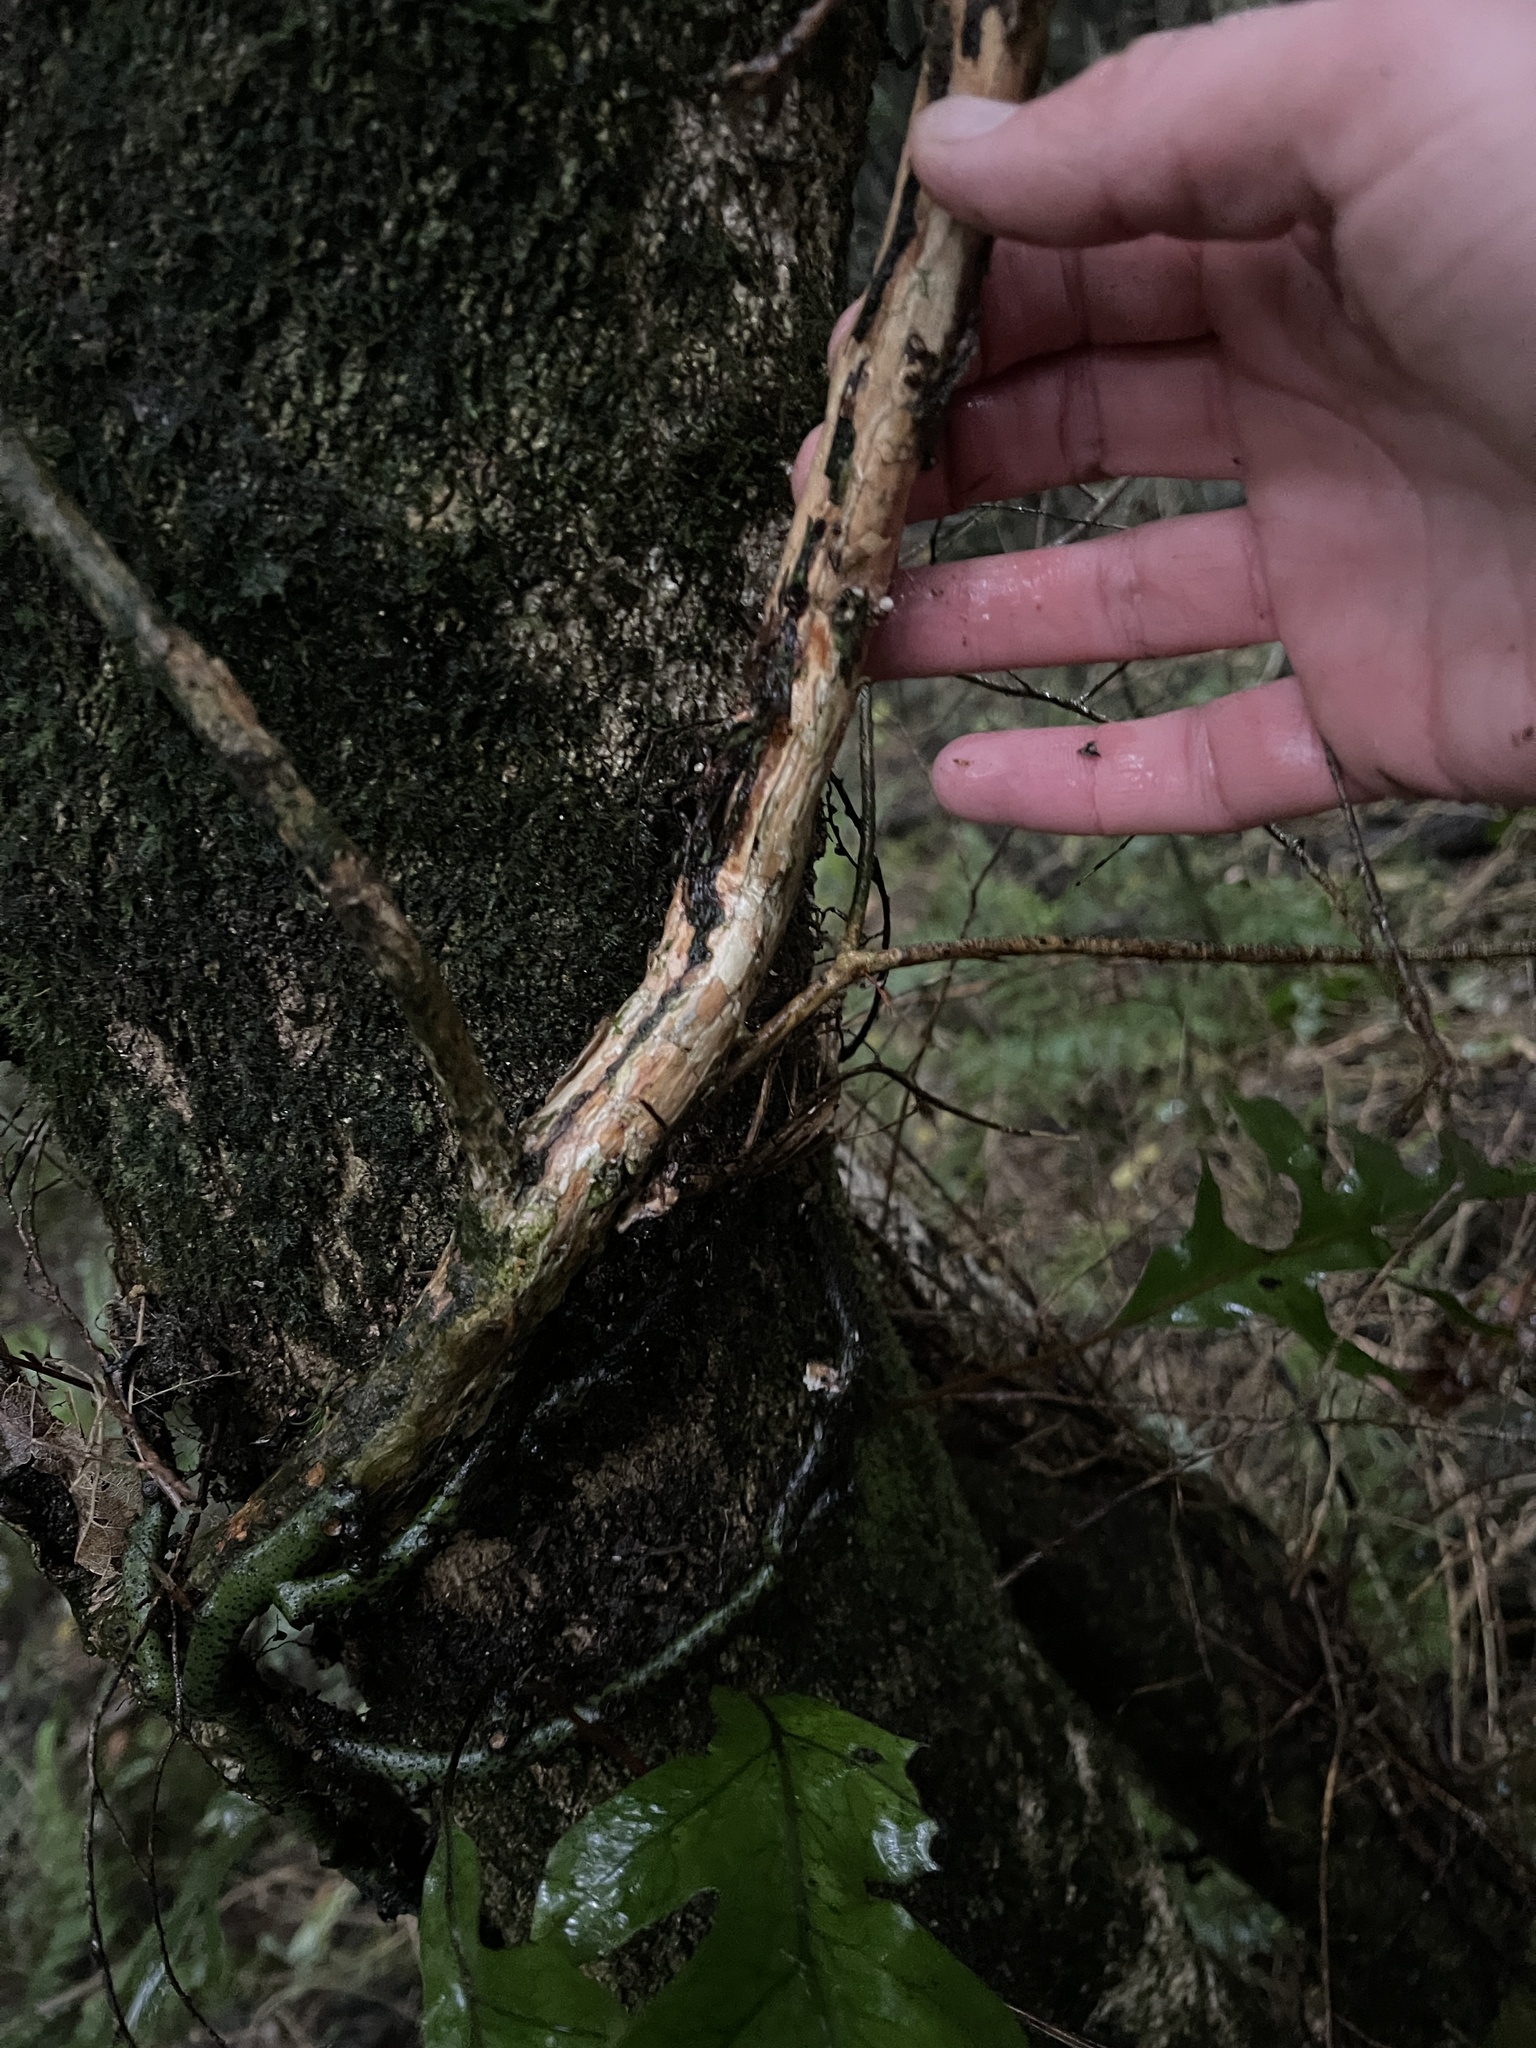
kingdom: Plantae
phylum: Tracheophyta
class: Magnoliopsida
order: Myrtales
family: Myrtaceae
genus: Metrosideros
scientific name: Metrosideros diffusa
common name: Small ratavine
